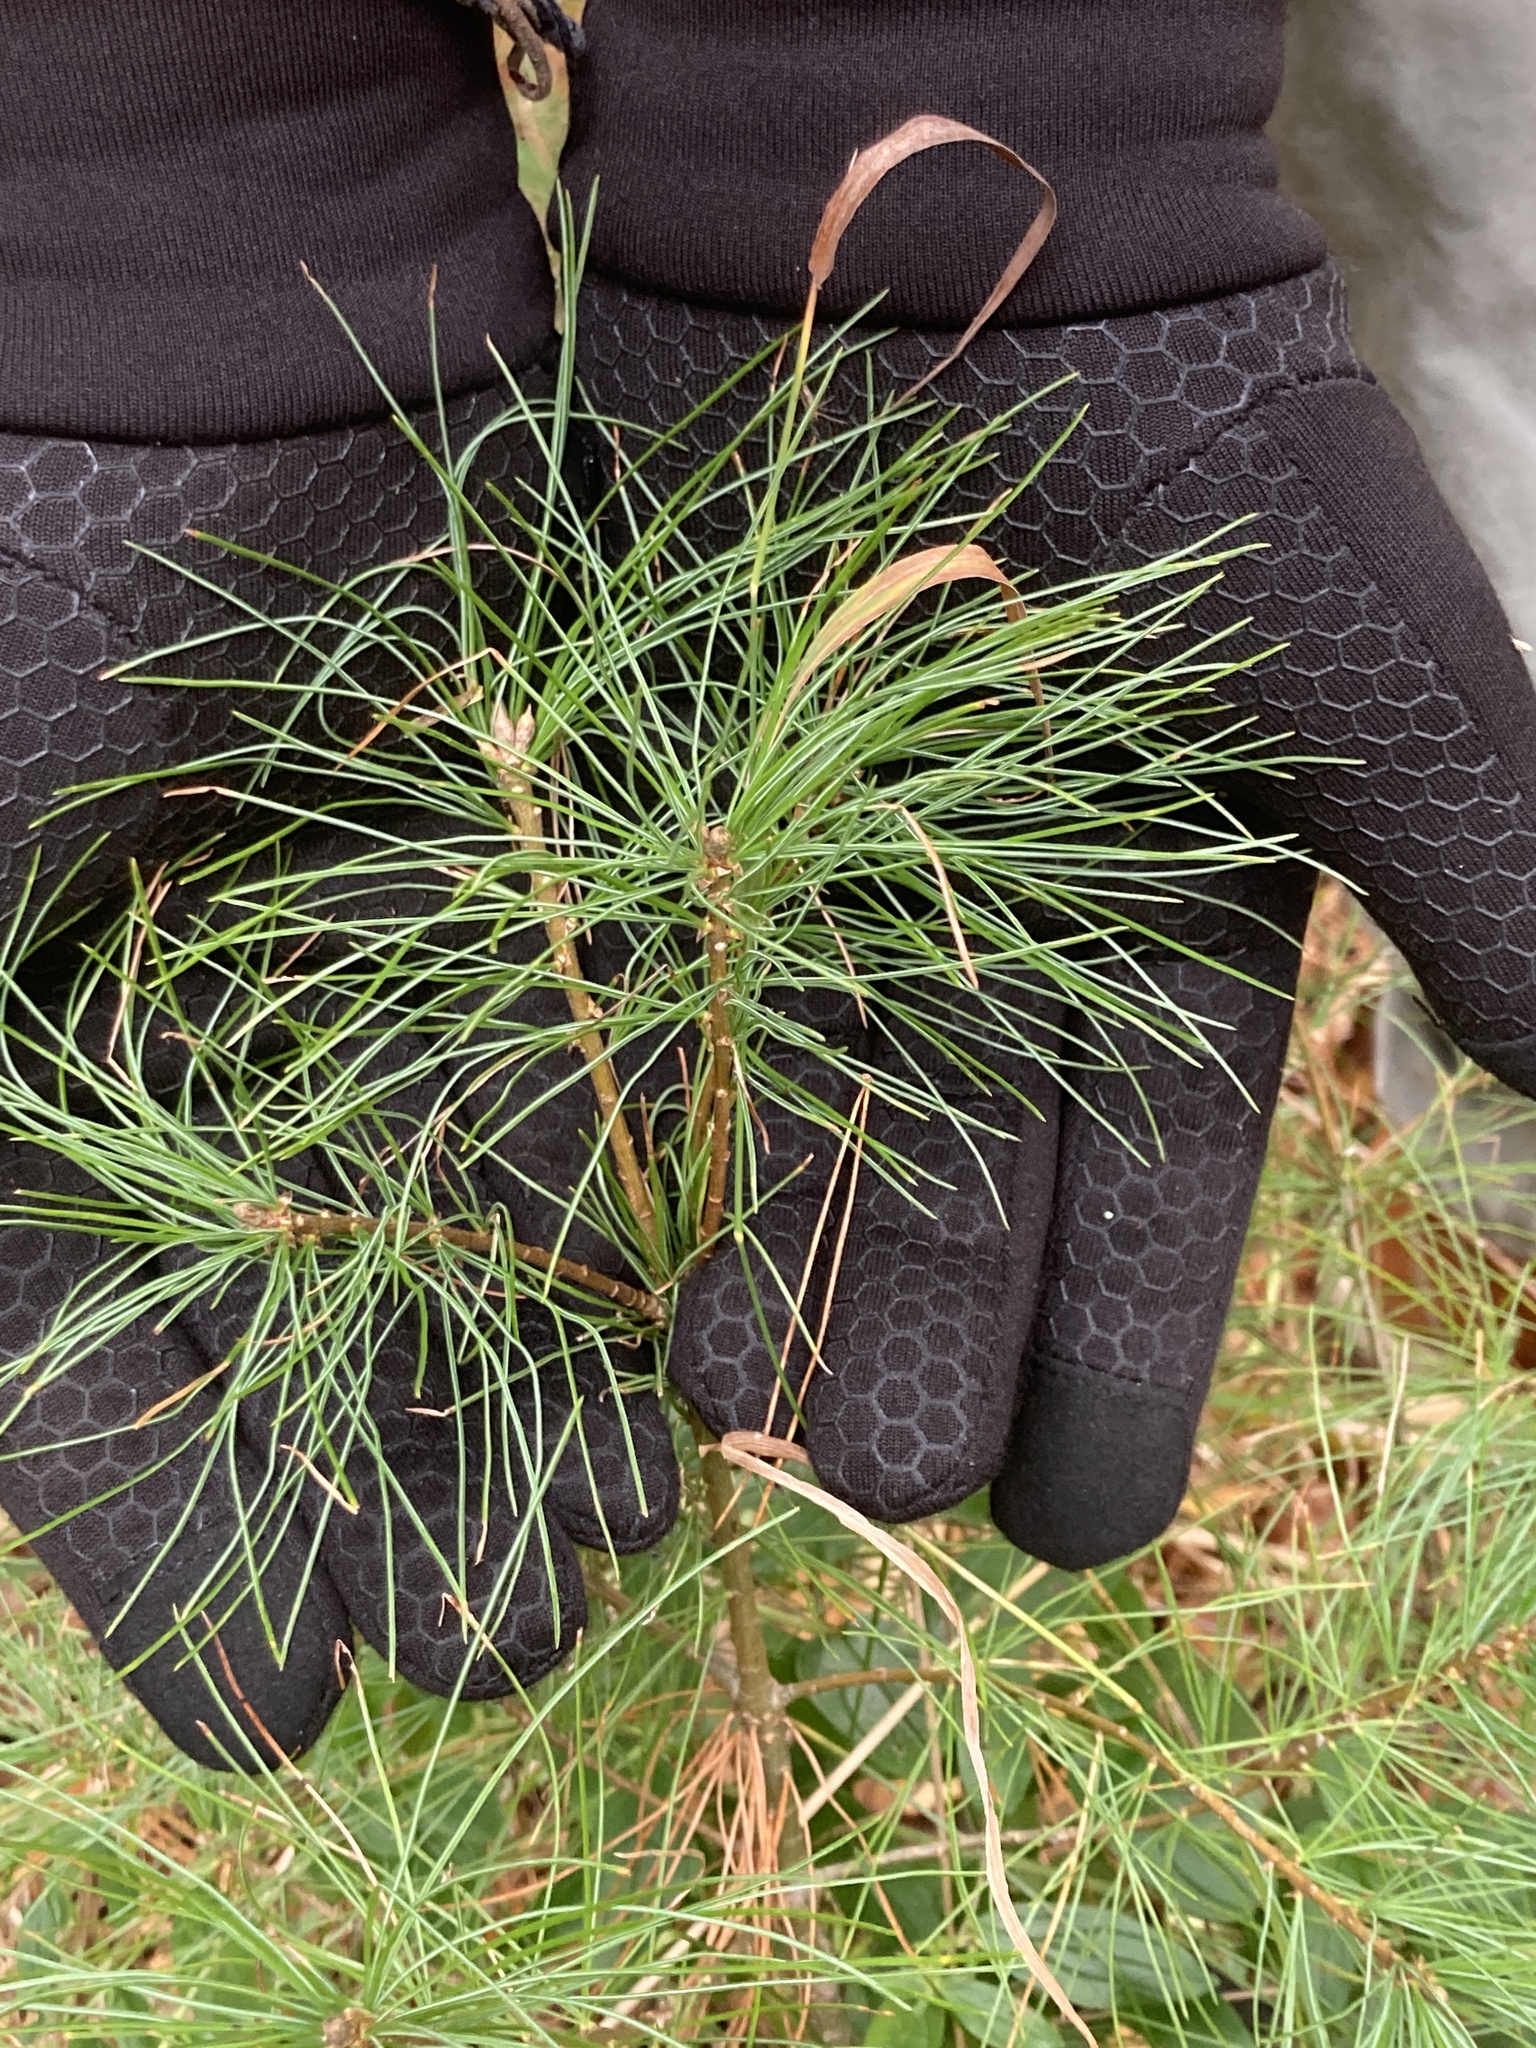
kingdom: Plantae
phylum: Tracheophyta
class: Pinopsida
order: Pinales
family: Pinaceae
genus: Pinus
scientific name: Pinus strobus
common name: Weymouth pine
